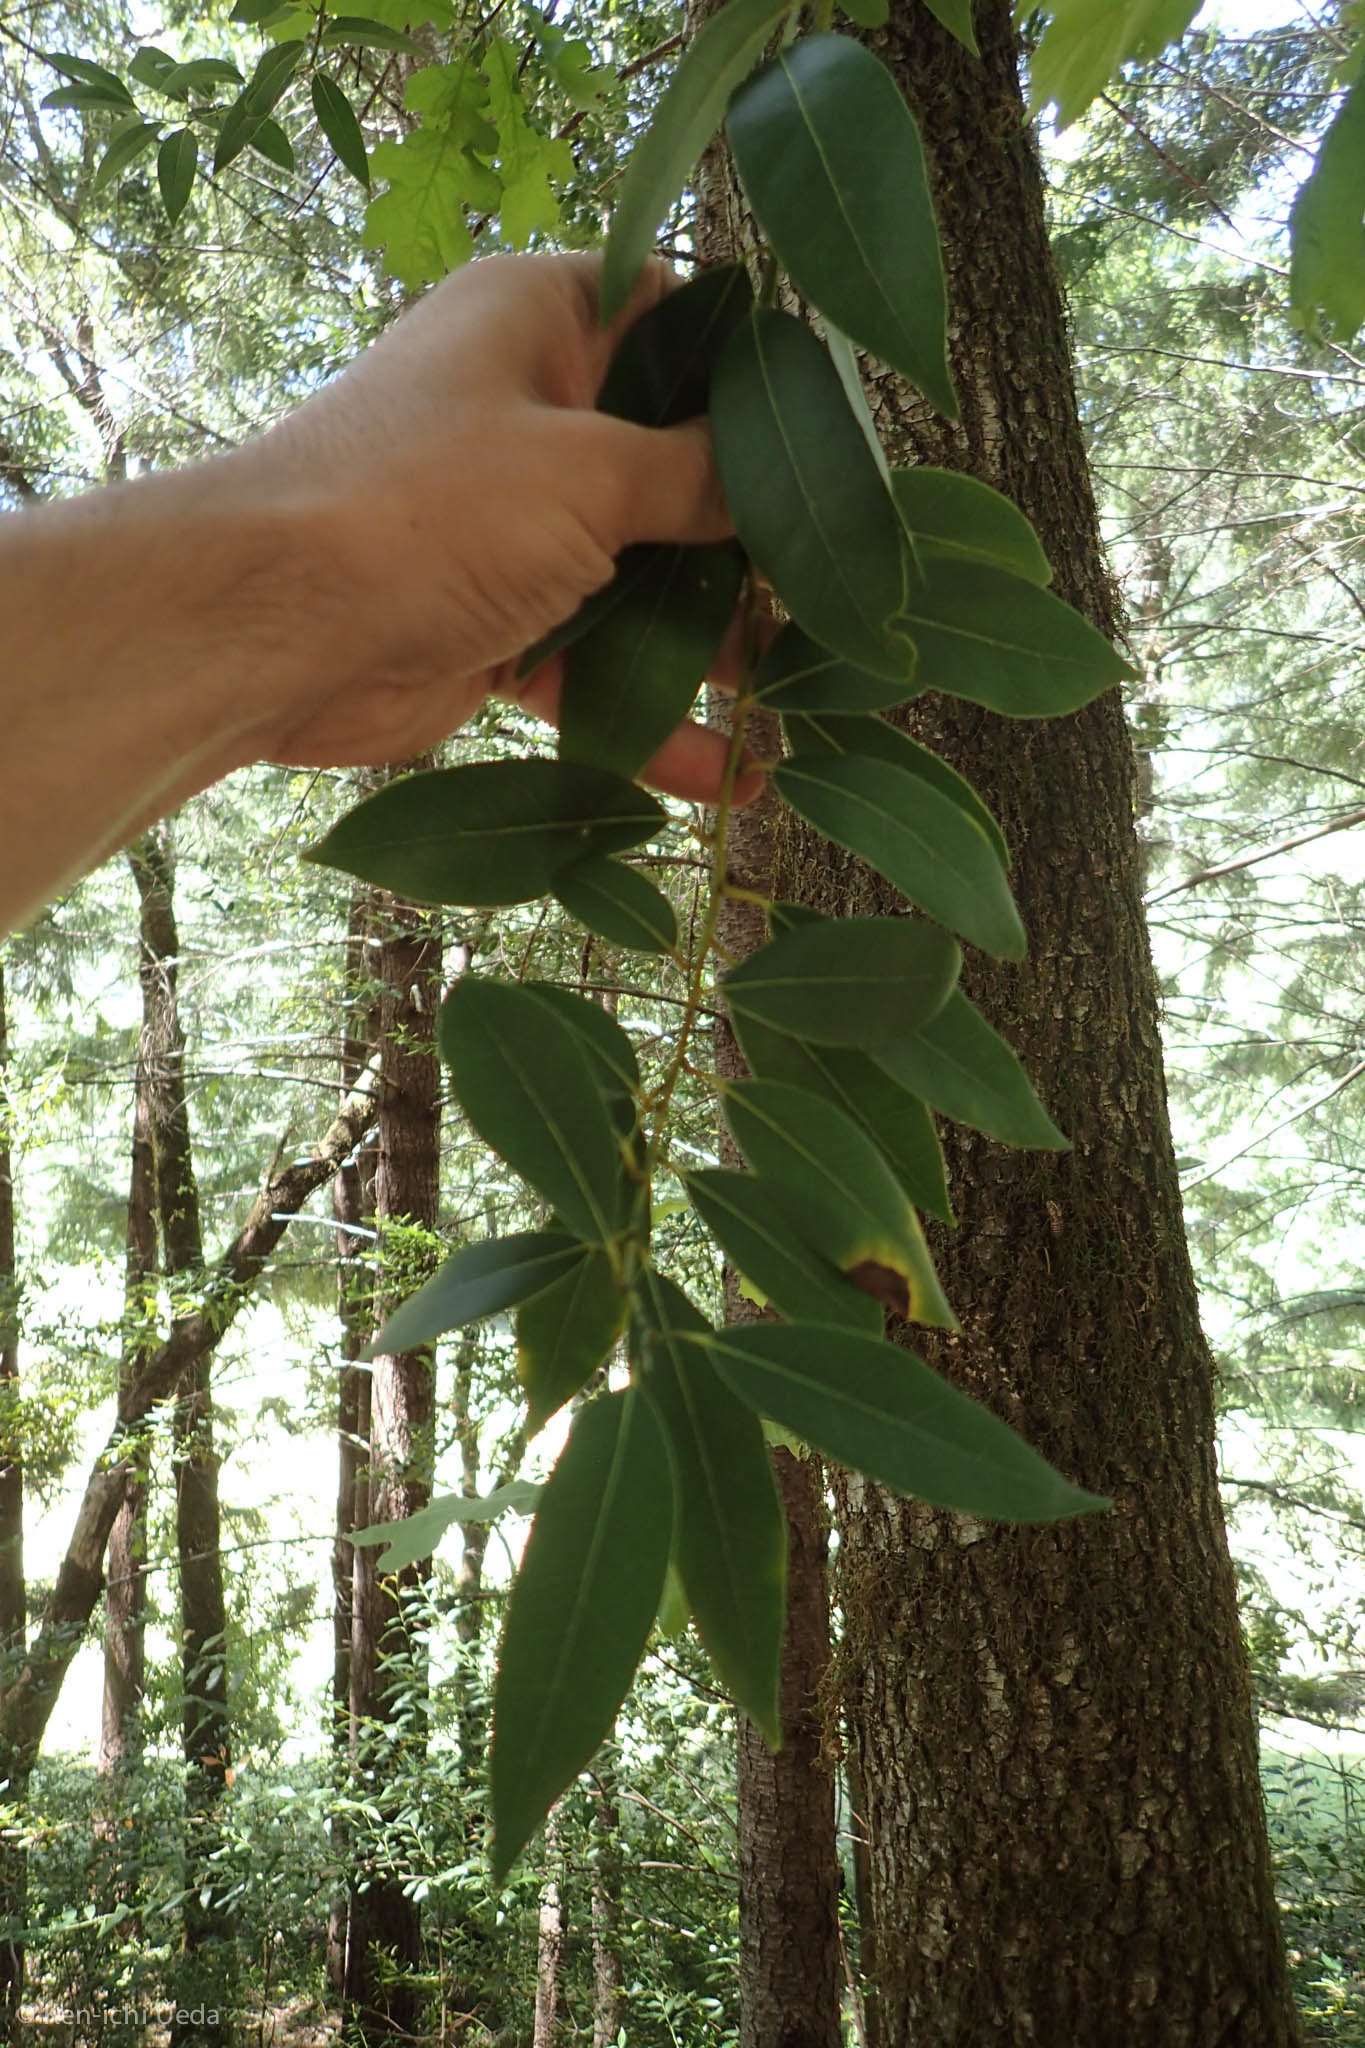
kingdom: Plantae
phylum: Tracheophyta
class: Magnoliopsida
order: Laurales
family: Lauraceae
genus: Umbellularia
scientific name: Umbellularia californica
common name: California bay
